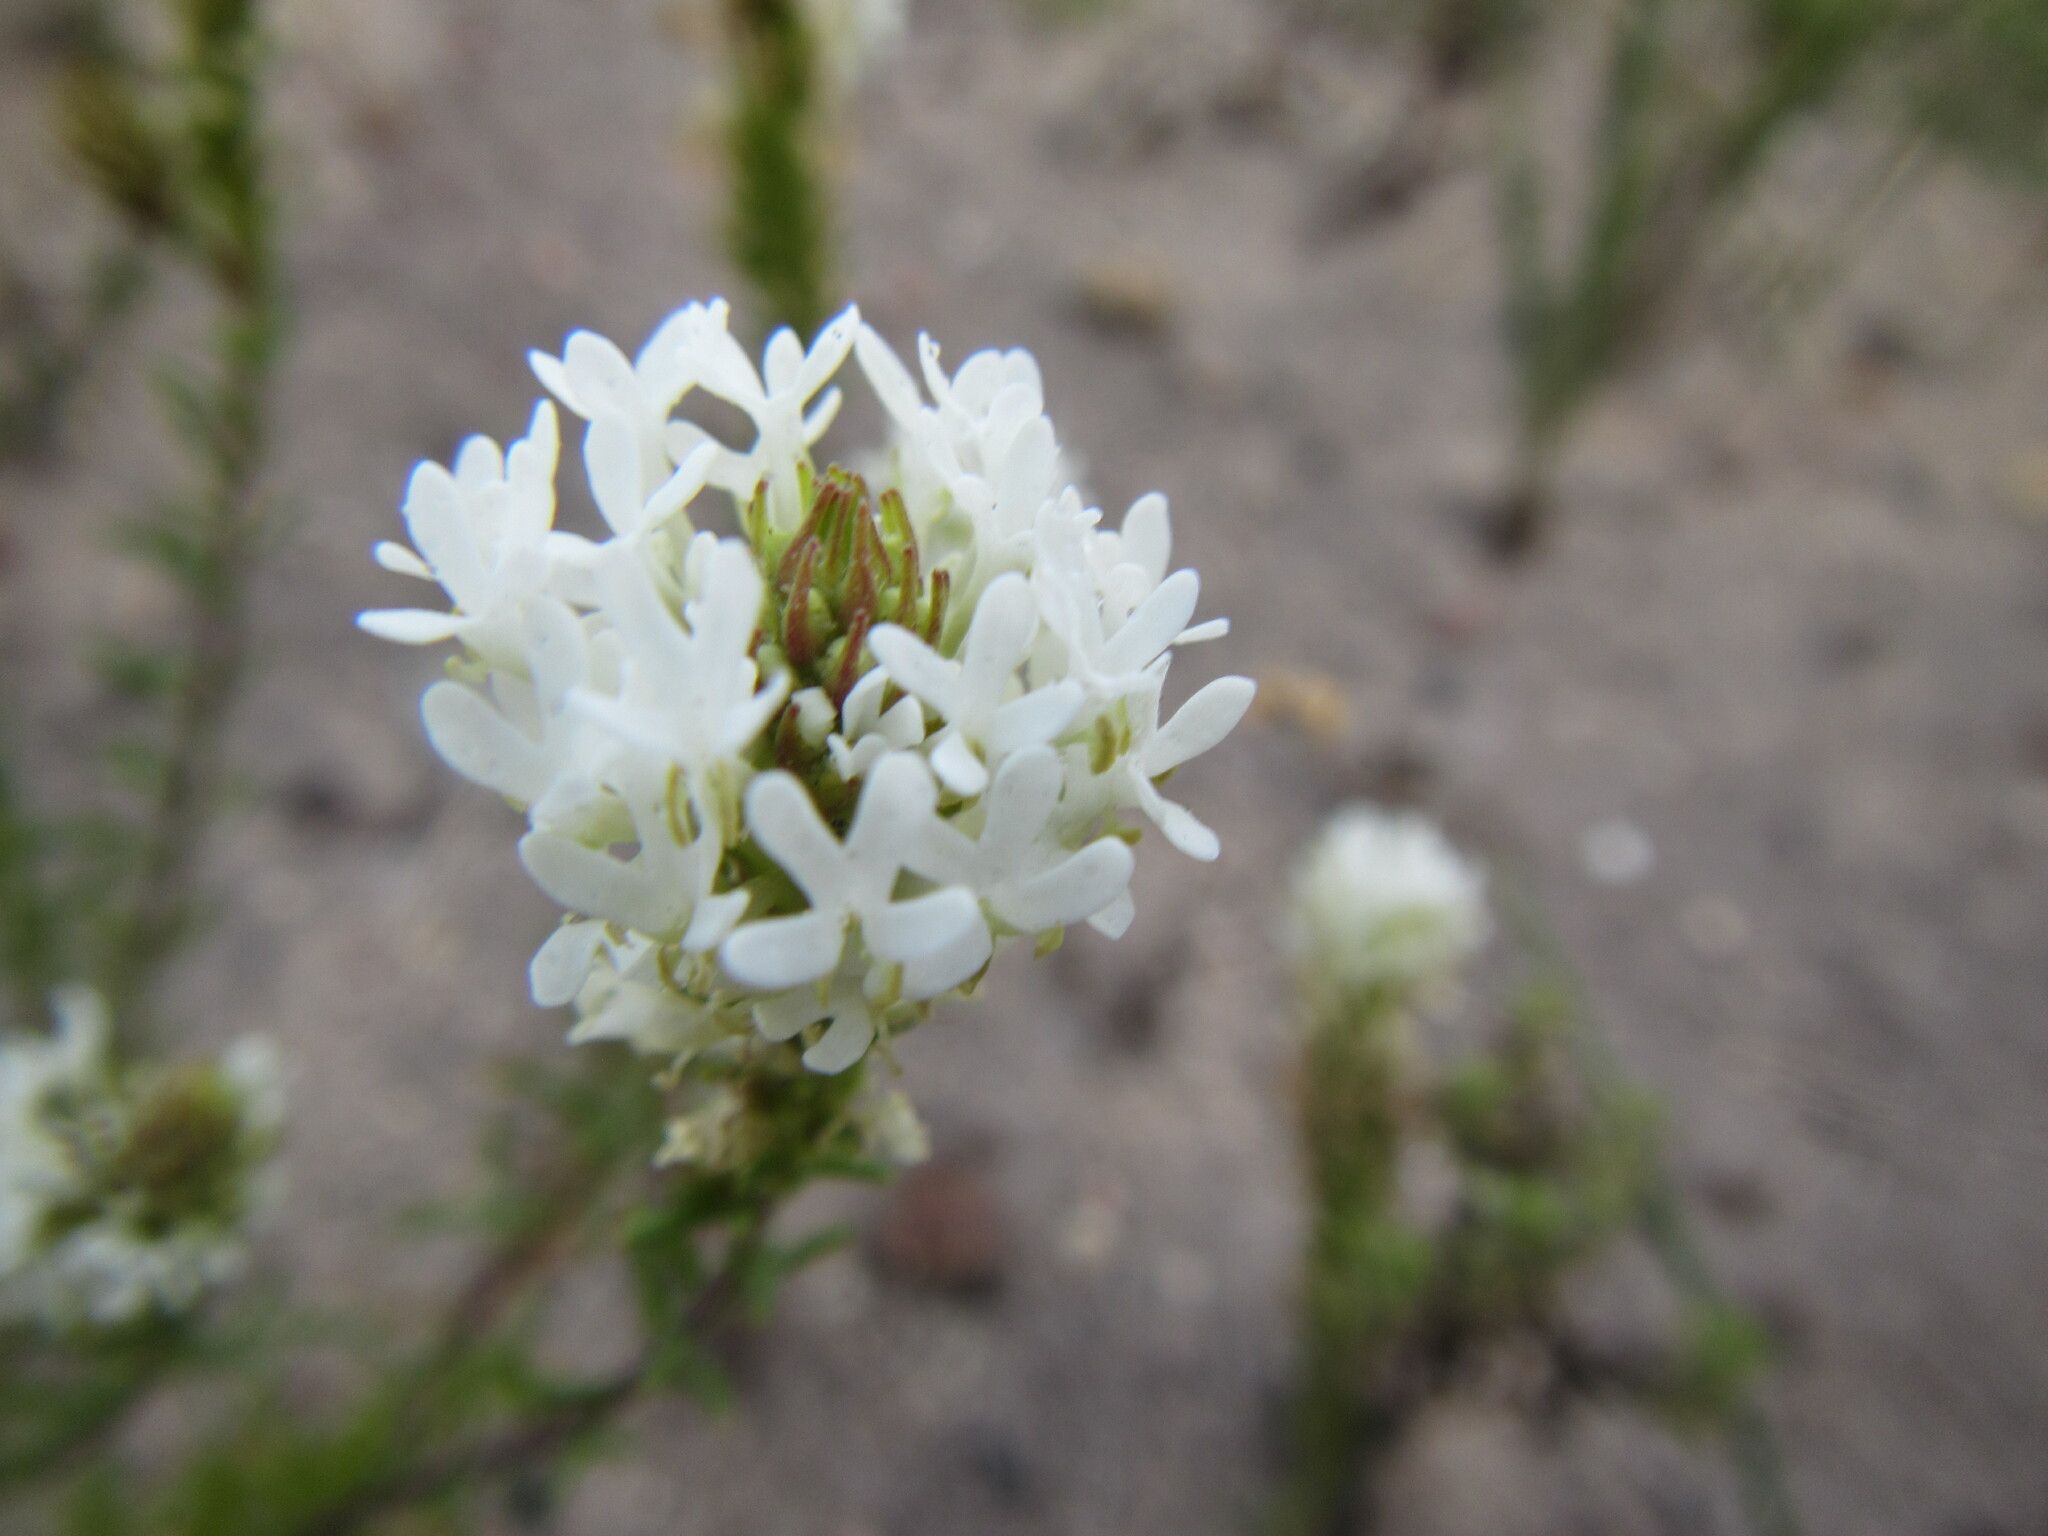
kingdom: Plantae
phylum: Tracheophyta
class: Magnoliopsida
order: Lamiales
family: Scrophulariaceae
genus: Dischisma
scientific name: Dischisma ciliatum
